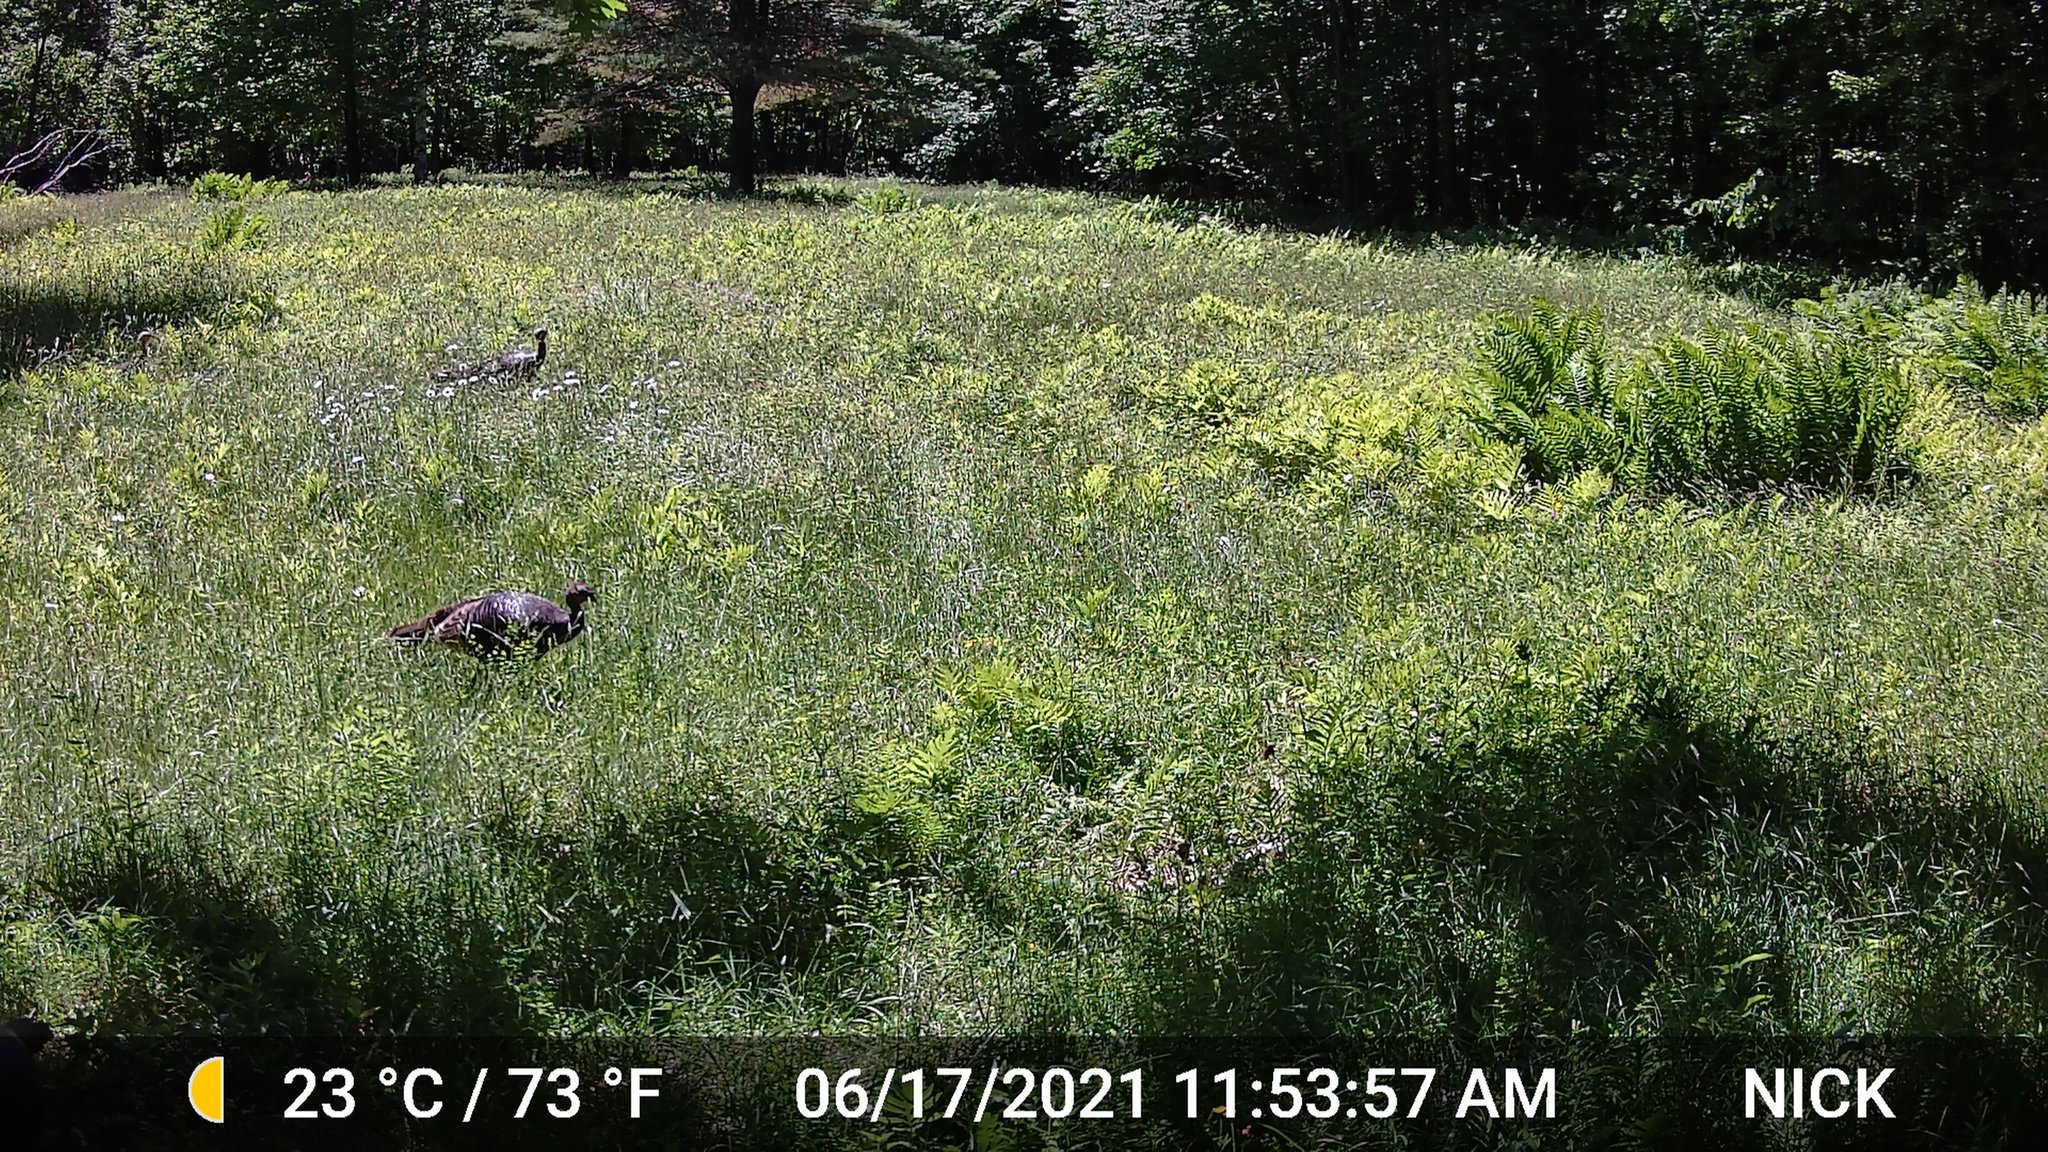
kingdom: Animalia
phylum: Chordata
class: Aves
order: Galliformes
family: Phasianidae
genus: Meleagris
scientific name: Meleagris gallopavo
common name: Wild turkey
